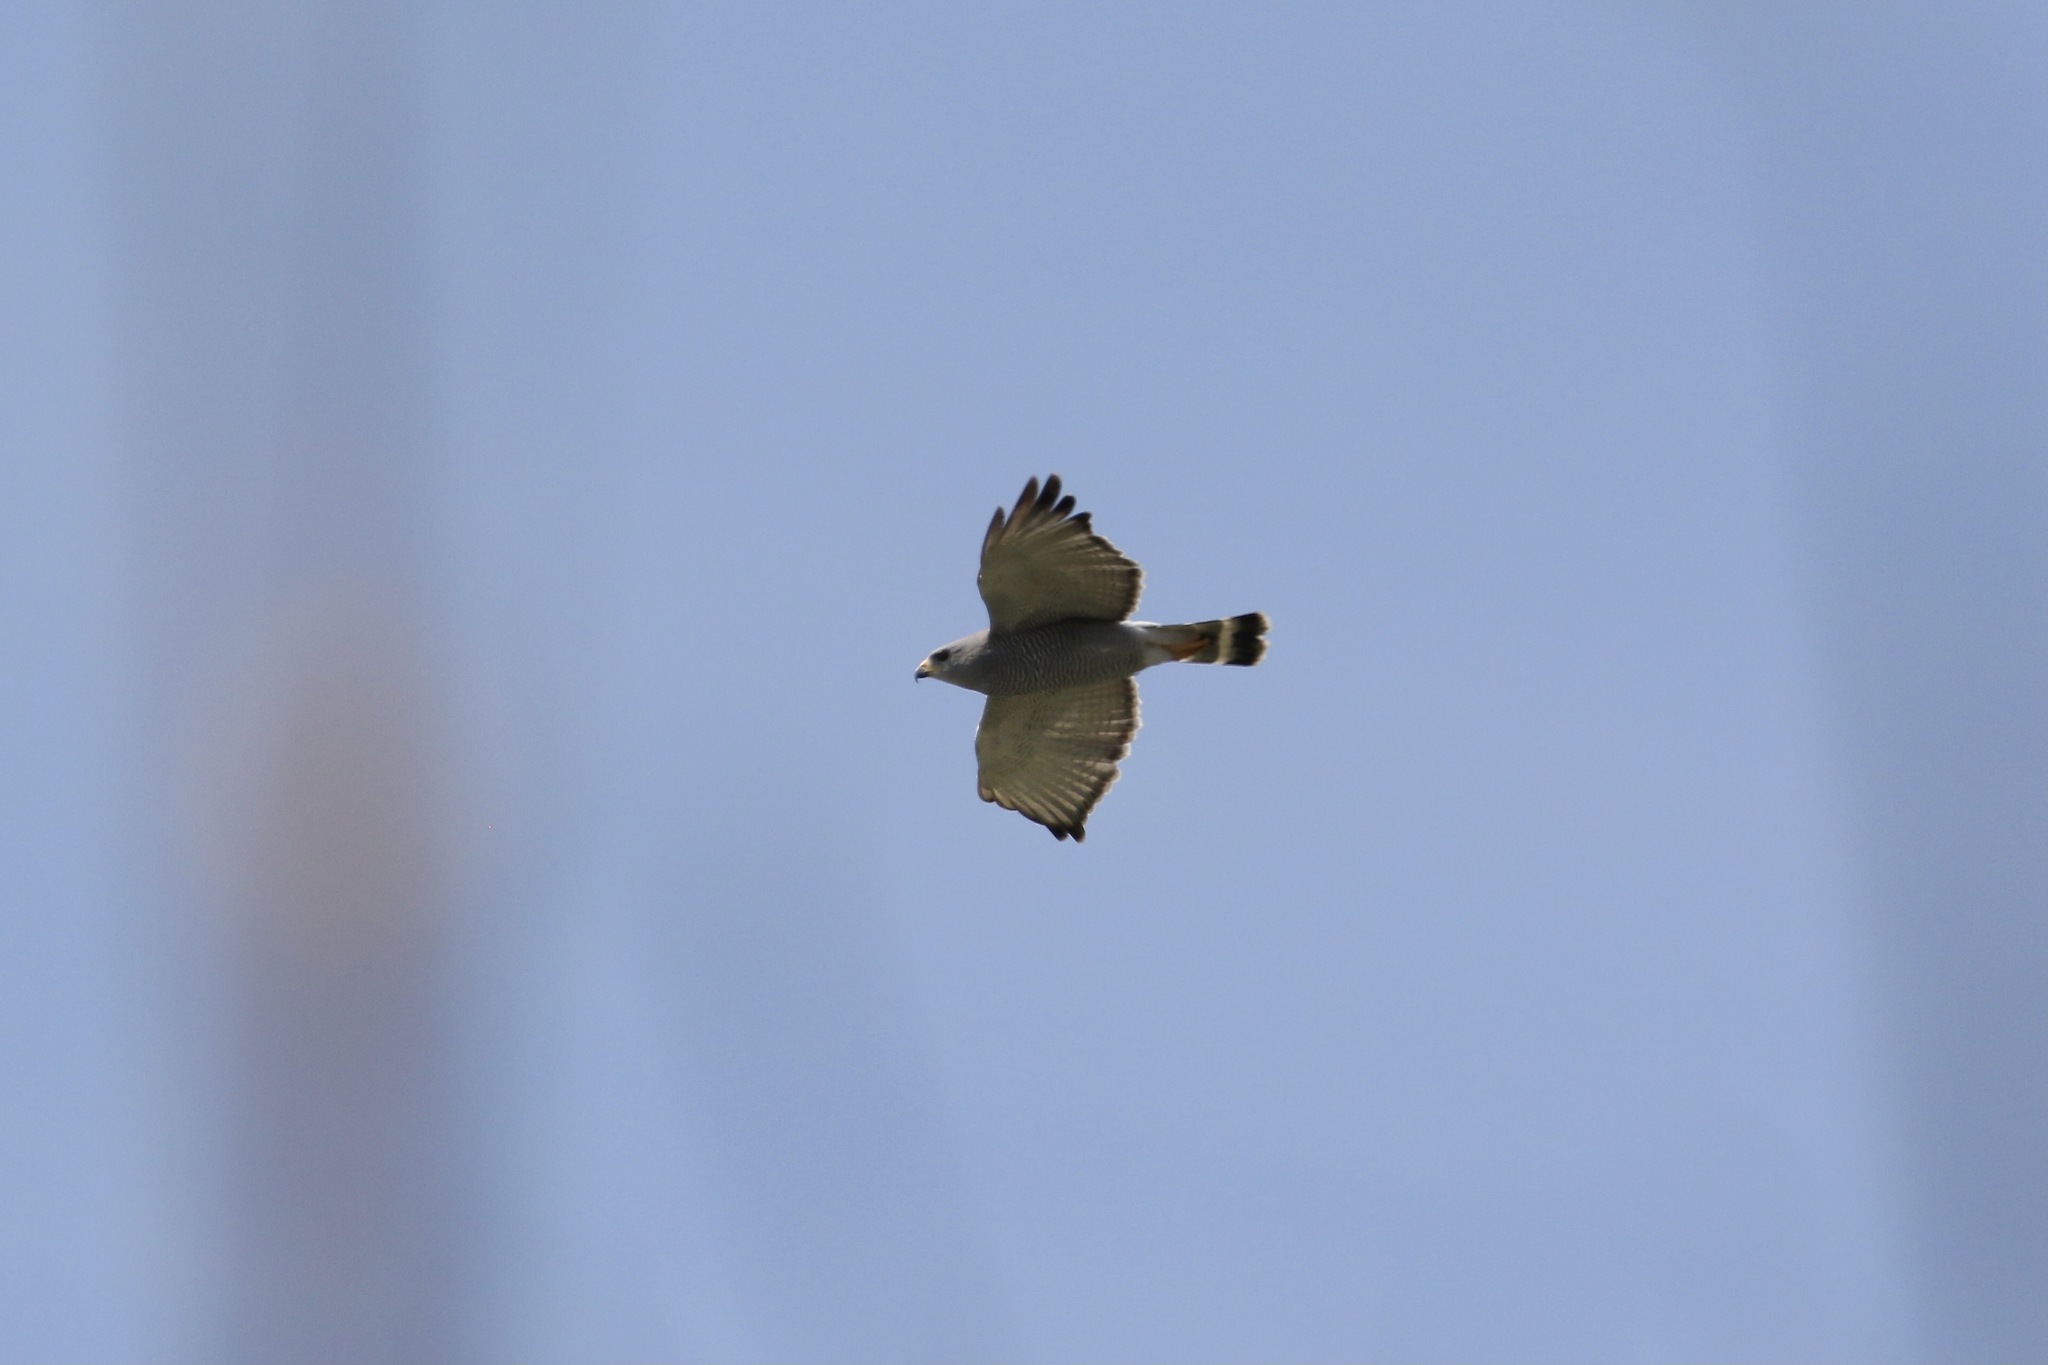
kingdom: Animalia
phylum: Chordata
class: Aves
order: Accipitriformes
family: Accipitridae
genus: Buteo
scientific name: Buteo nitidus
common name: Grey-lined hawk
